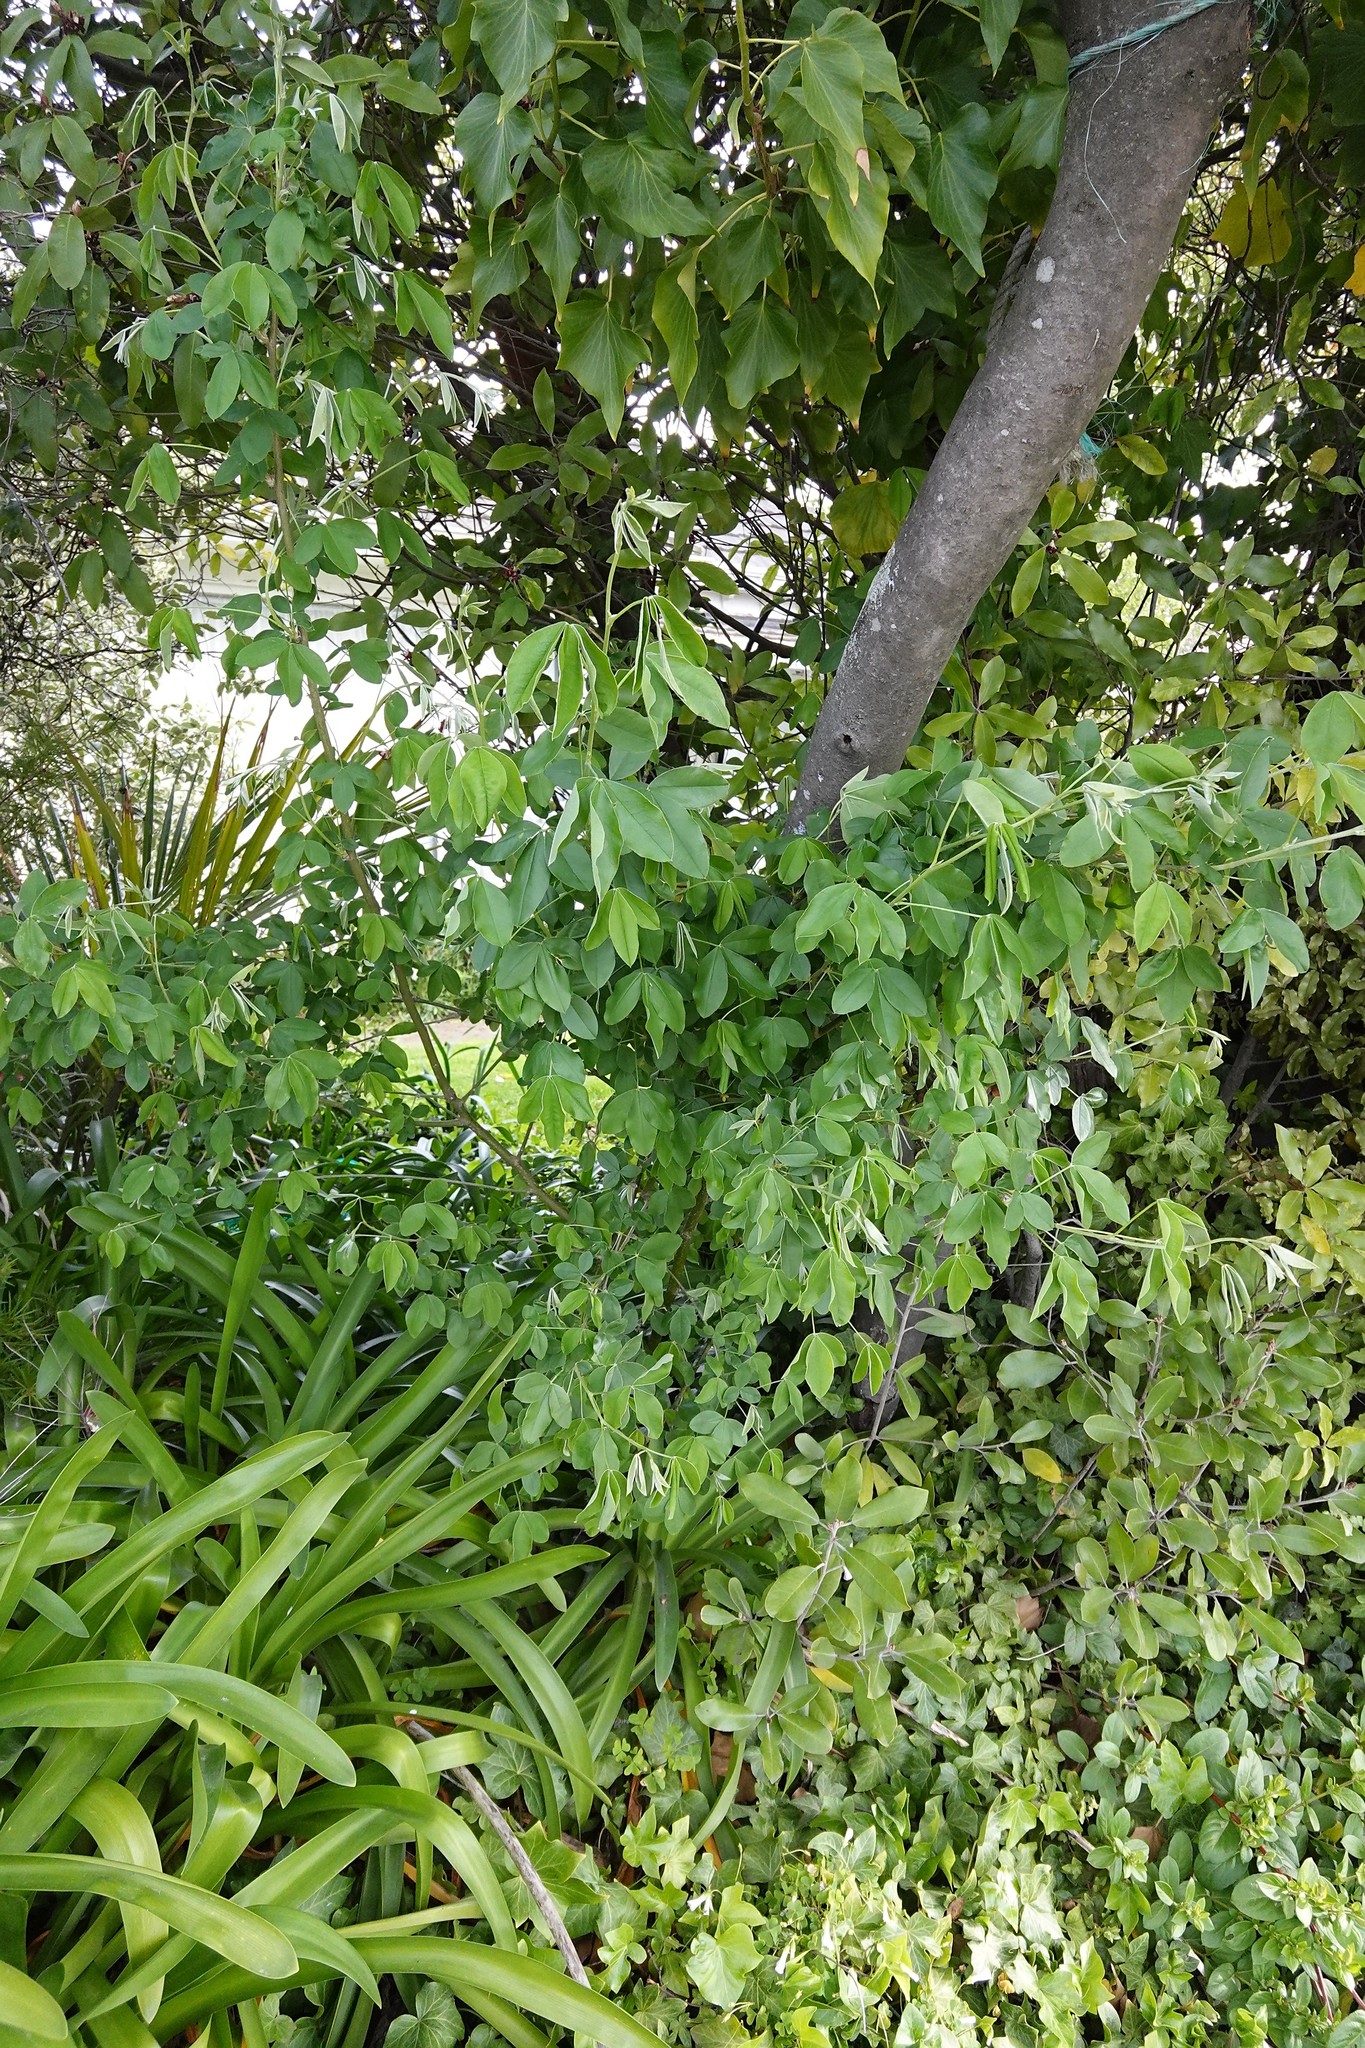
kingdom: Plantae
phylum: Tracheophyta
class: Magnoliopsida
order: Fabales
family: Fabaceae
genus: Laburnum
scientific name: Laburnum anagyroides
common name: Laburnum
